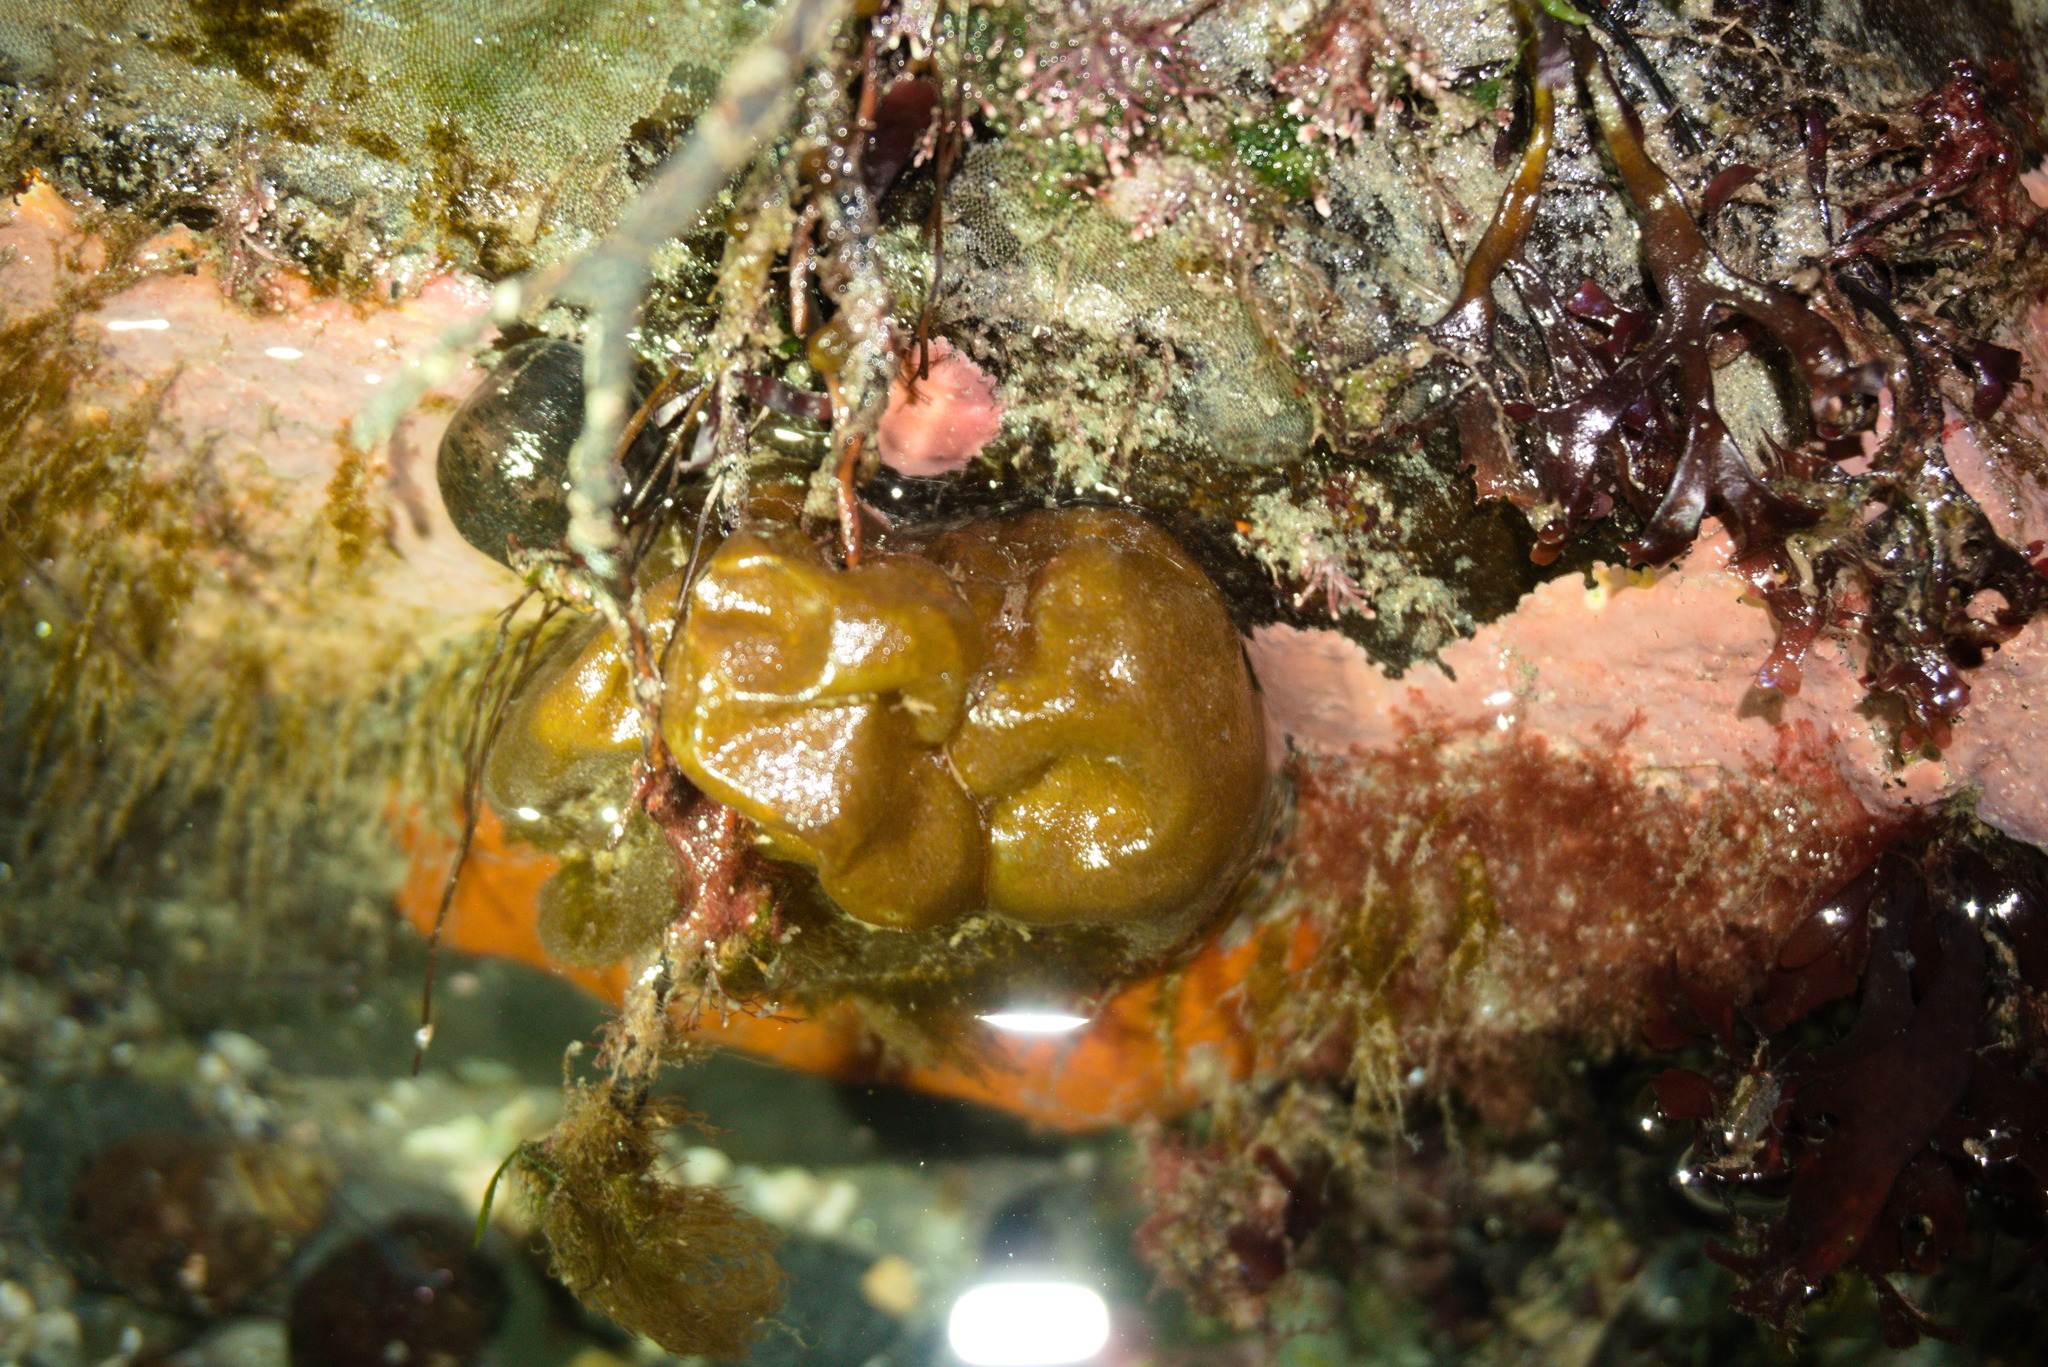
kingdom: Chromista
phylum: Ochrophyta
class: Phaeophyceae
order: Scytosiphonales
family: Scytosiphonaceae
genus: Colpomenia
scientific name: Colpomenia peregrina
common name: Oyster thief
